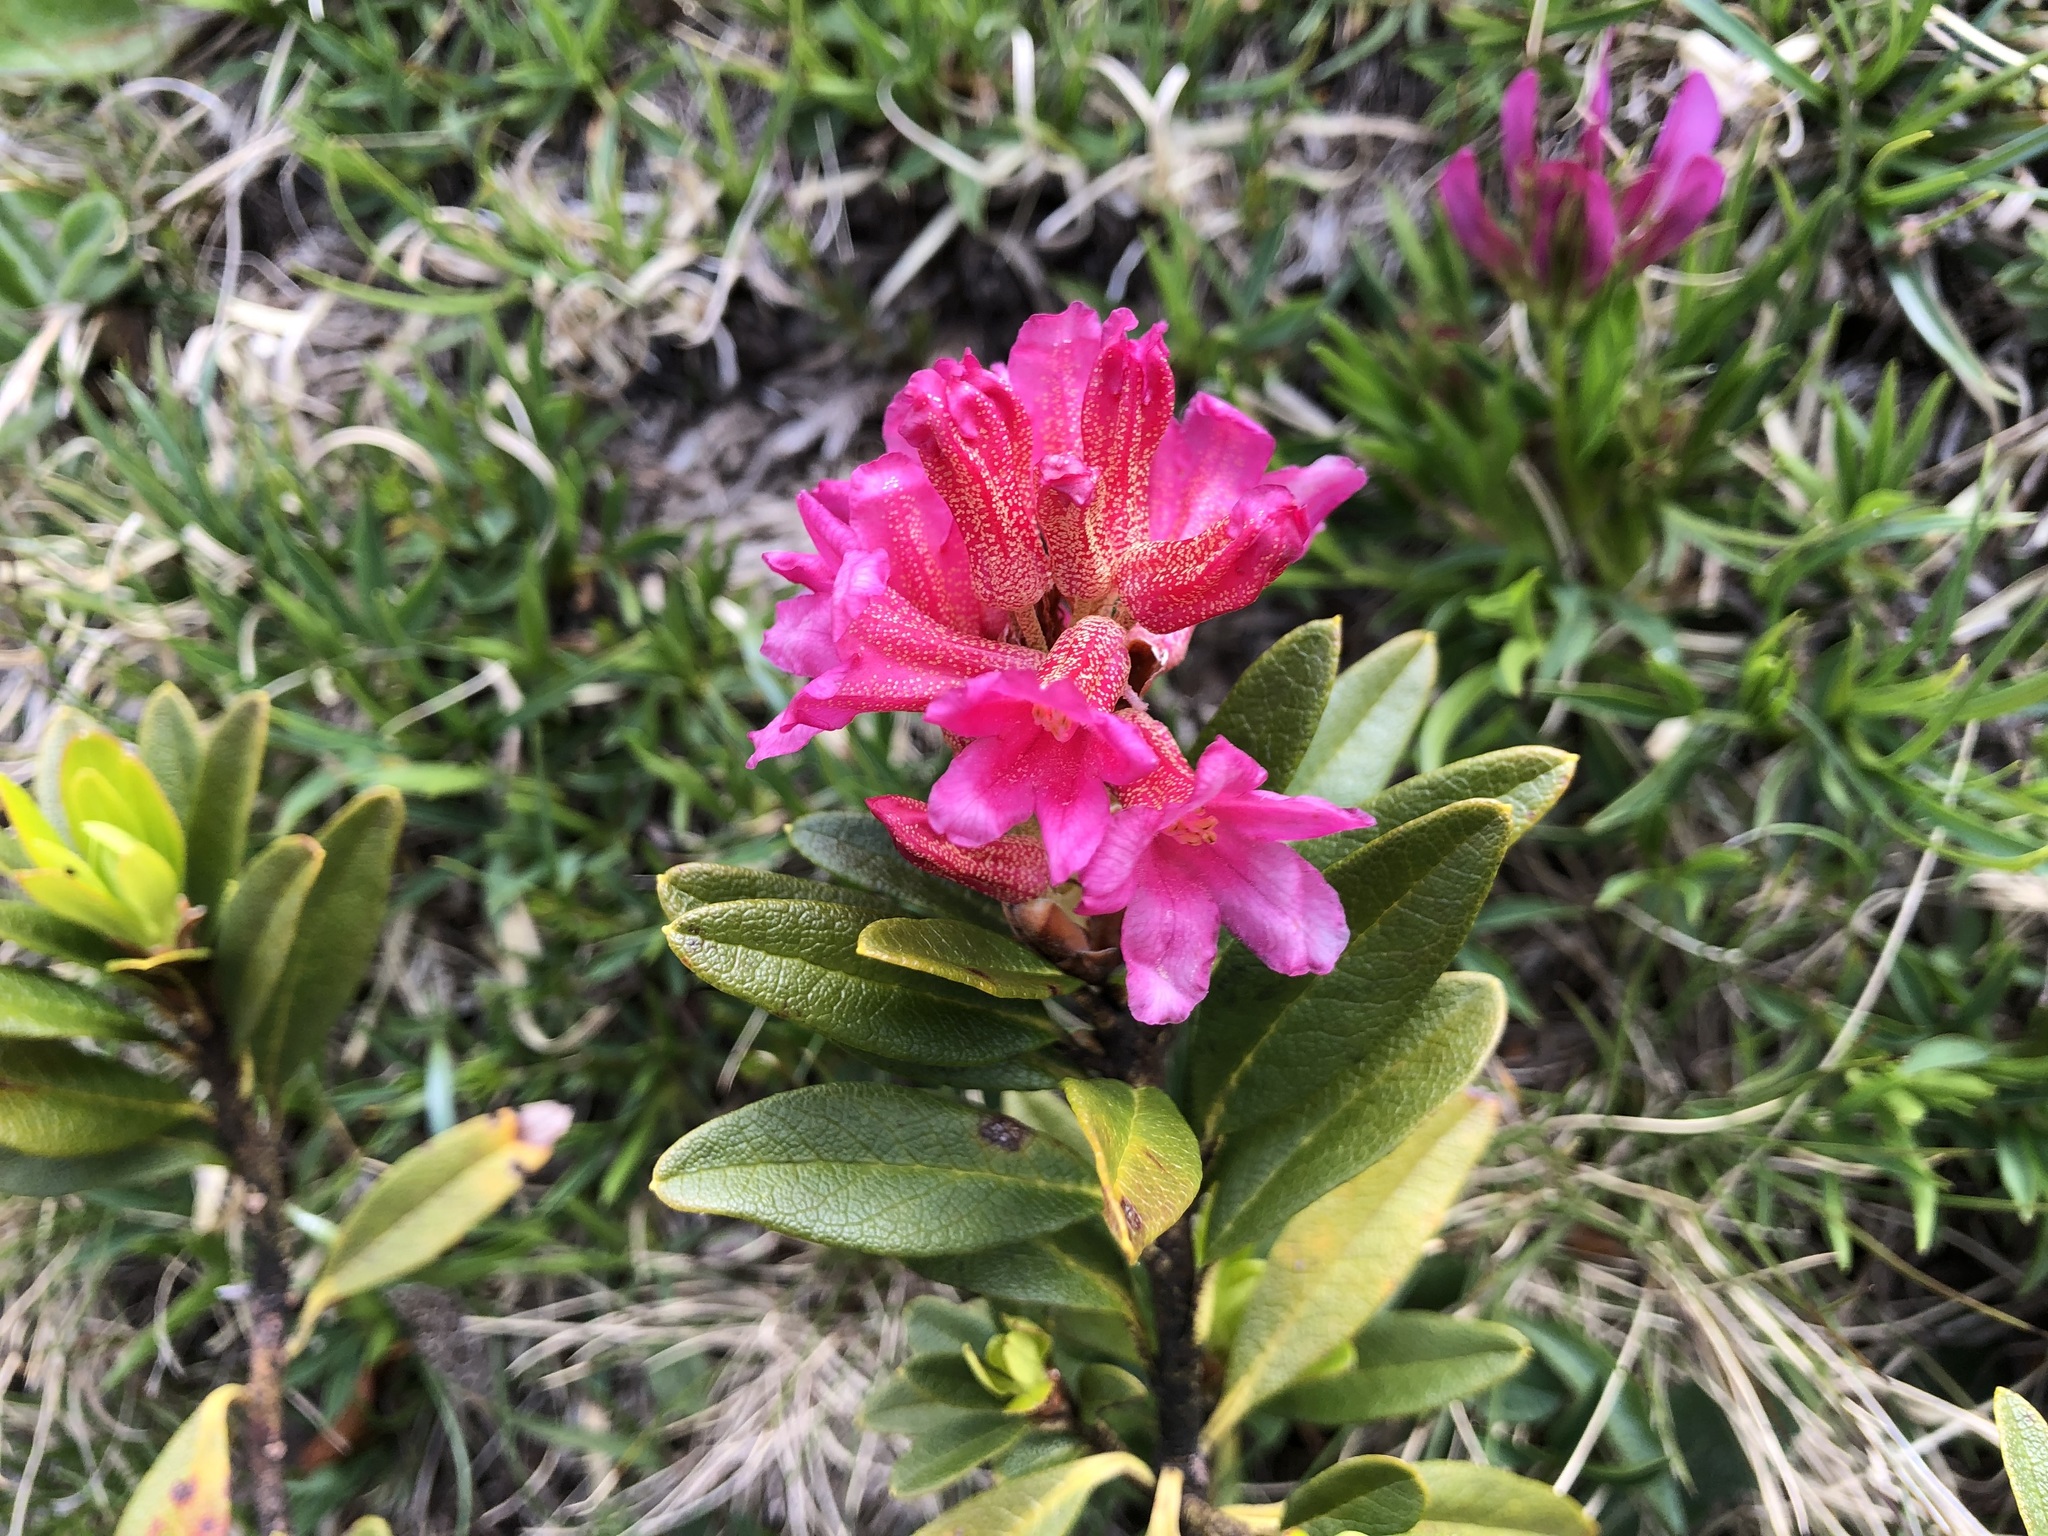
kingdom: Plantae
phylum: Tracheophyta
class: Magnoliopsida
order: Ericales
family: Ericaceae
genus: Rhododendron
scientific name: Rhododendron ferrugineum
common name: Alpenrose
